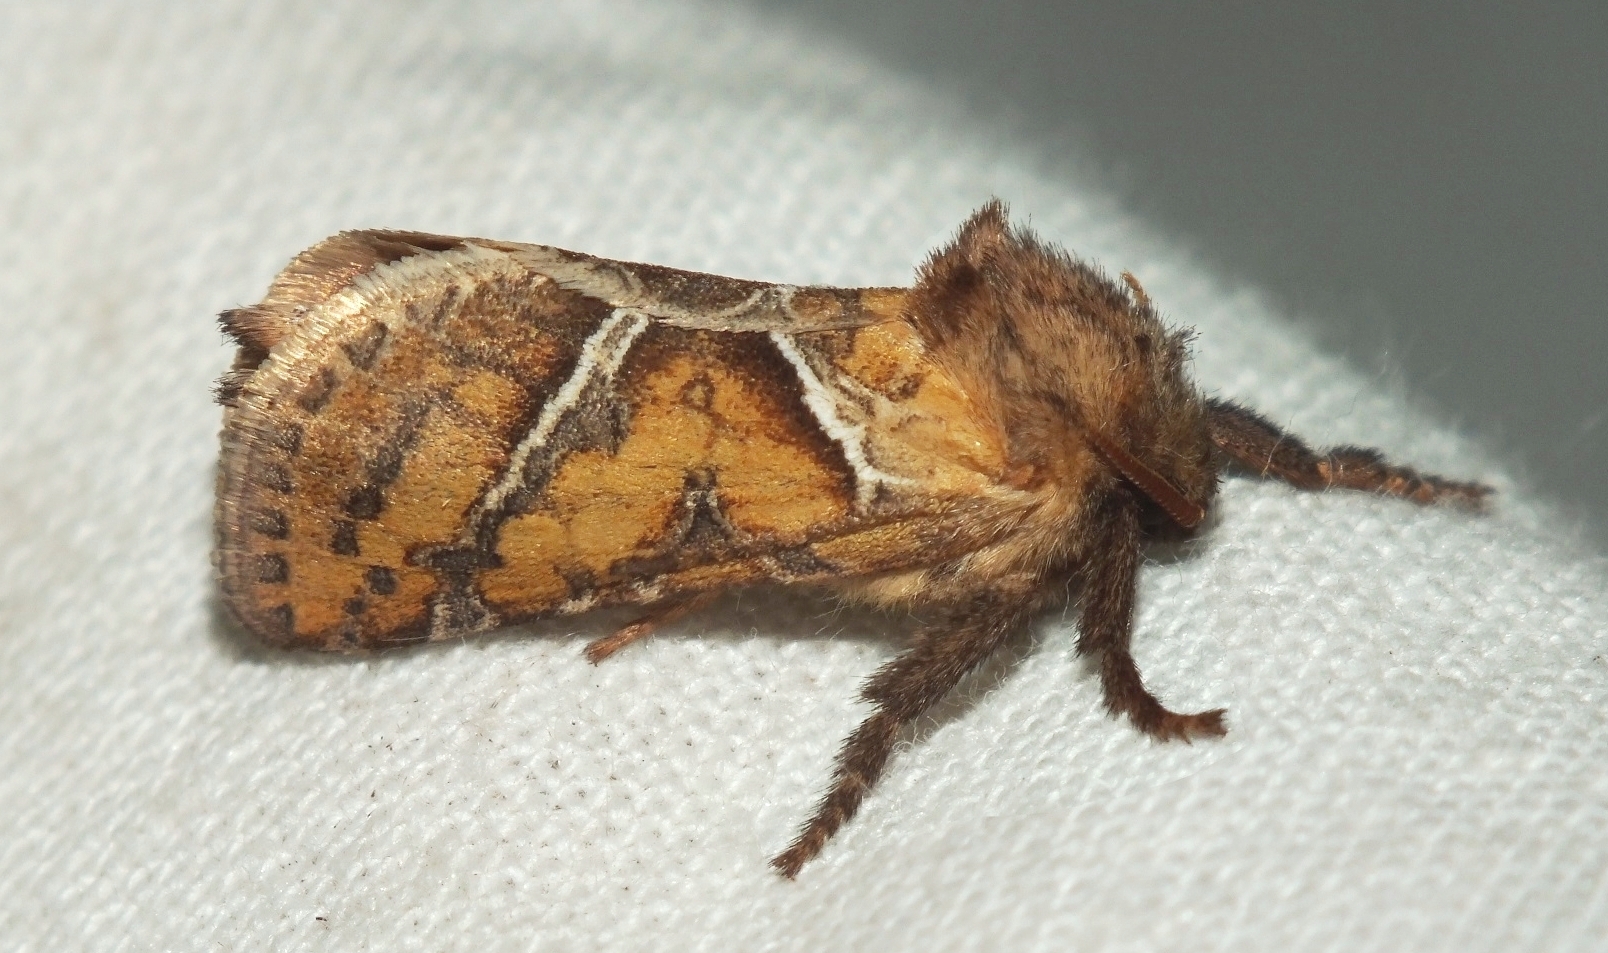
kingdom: Animalia
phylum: Arthropoda
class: Insecta
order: Lepidoptera
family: Hepialidae
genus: Triodia
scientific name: Triodia sylvina
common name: Orange swift
